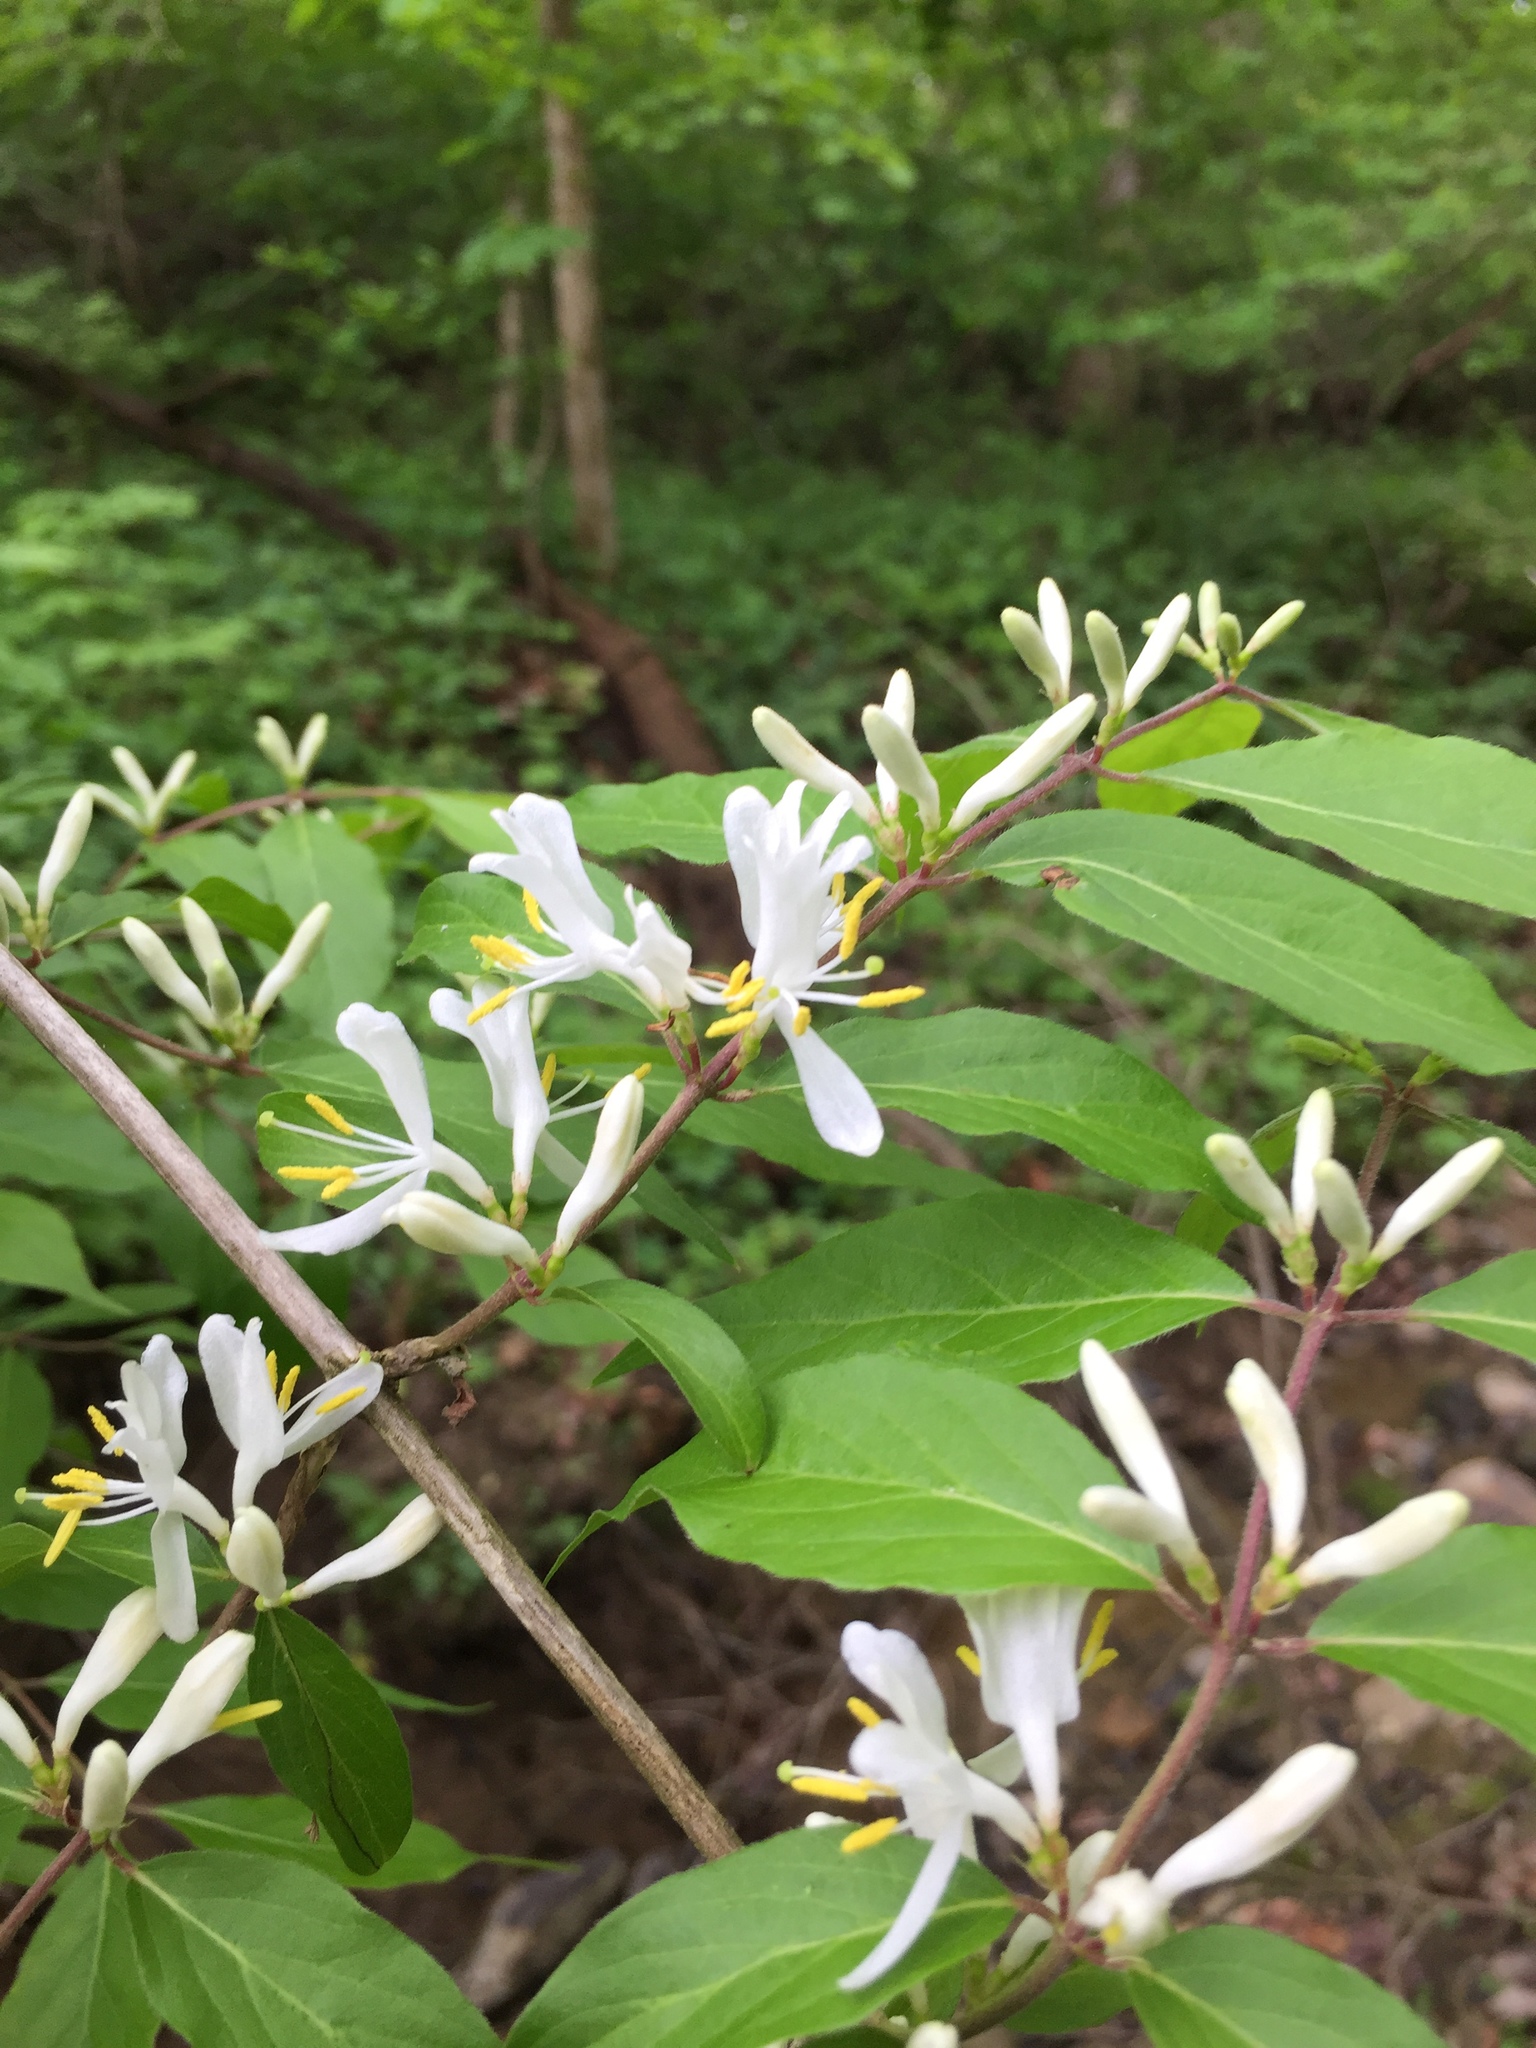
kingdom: Plantae
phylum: Tracheophyta
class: Magnoliopsida
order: Dipsacales
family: Caprifoliaceae
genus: Lonicera
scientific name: Lonicera maackii
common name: Amur honeysuckle
